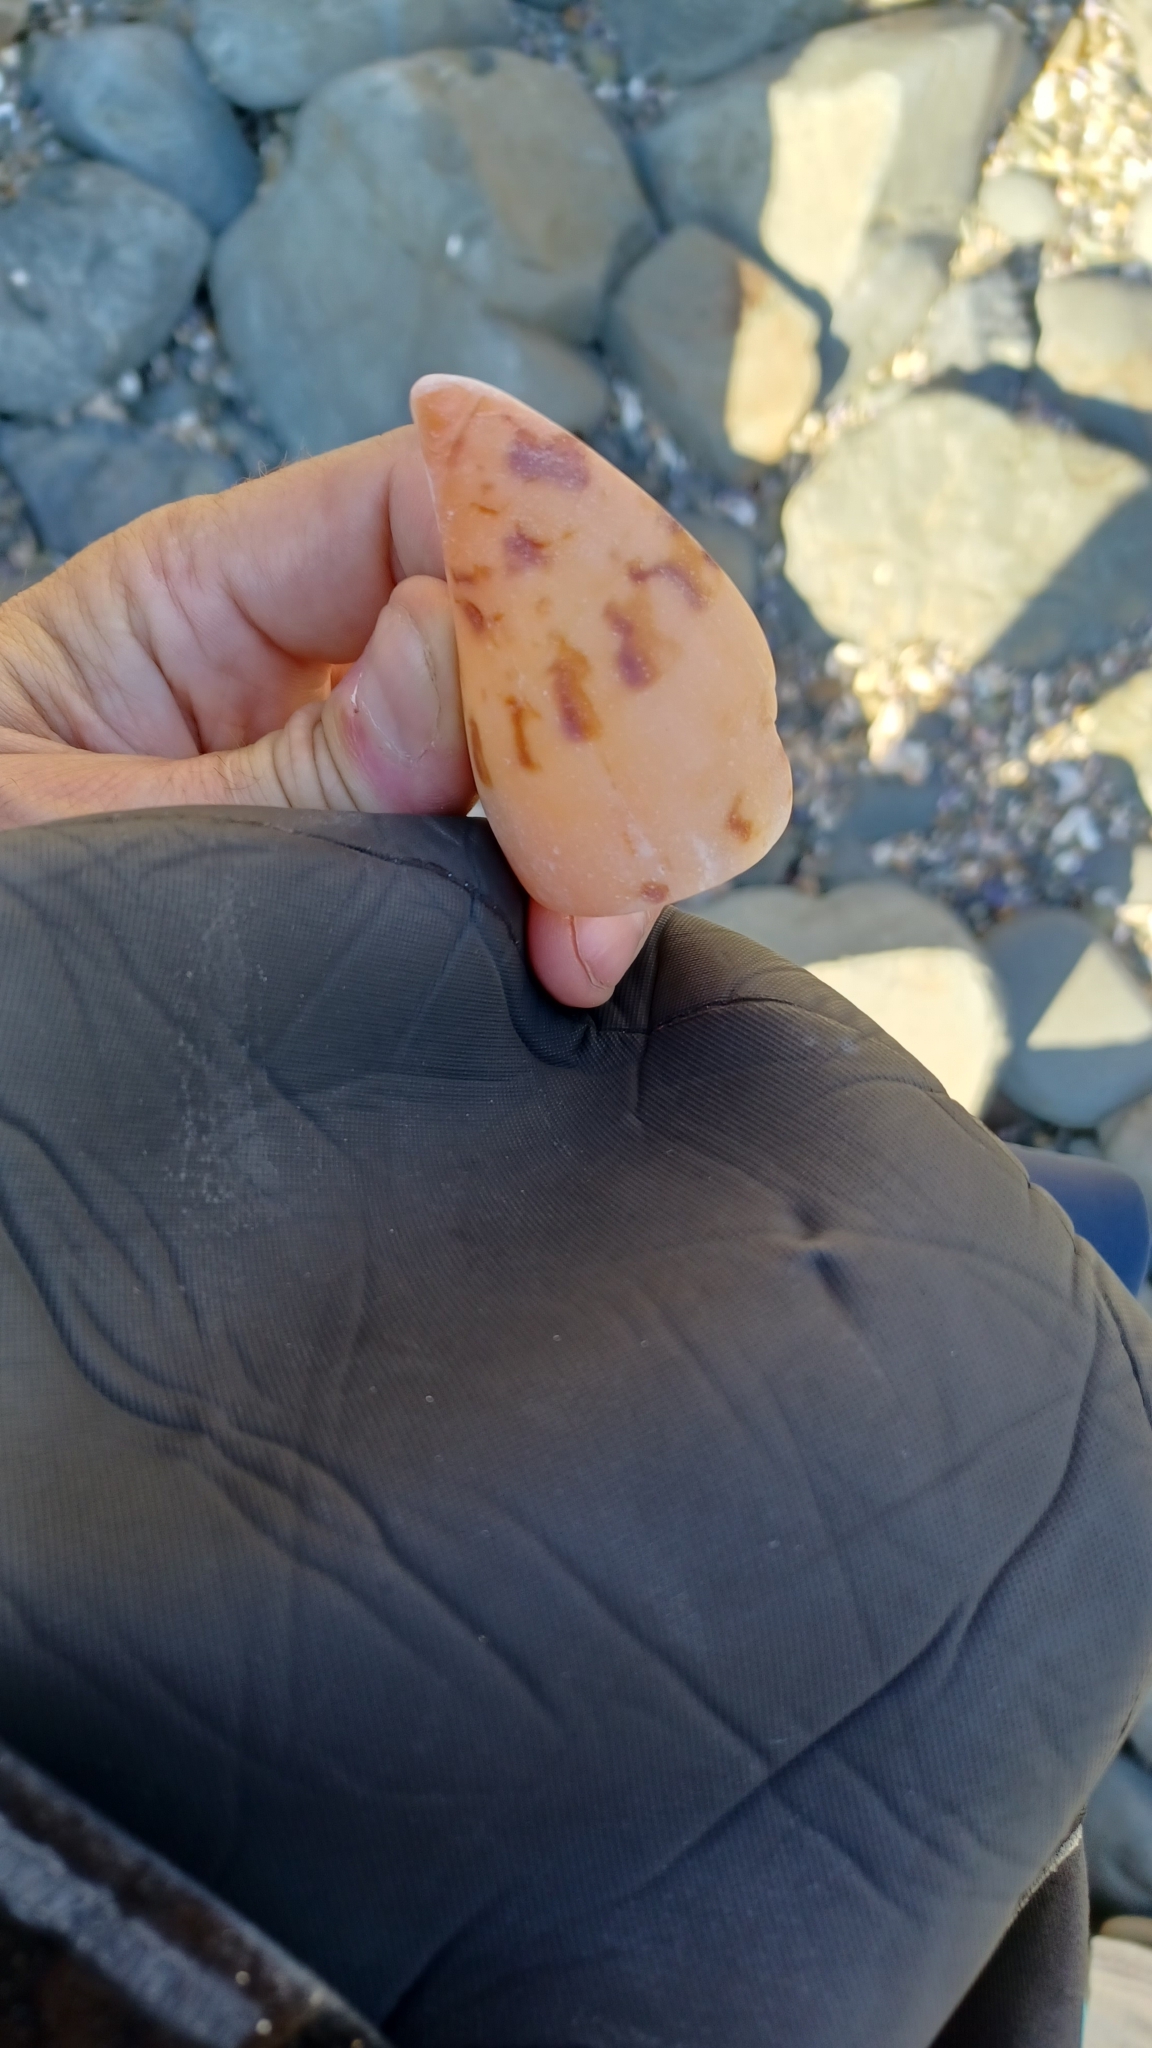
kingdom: Animalia
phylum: Mollusca
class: Gastropoda
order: Neogastropoda
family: Volutidae
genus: Amoria
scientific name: Amoria hunteri
